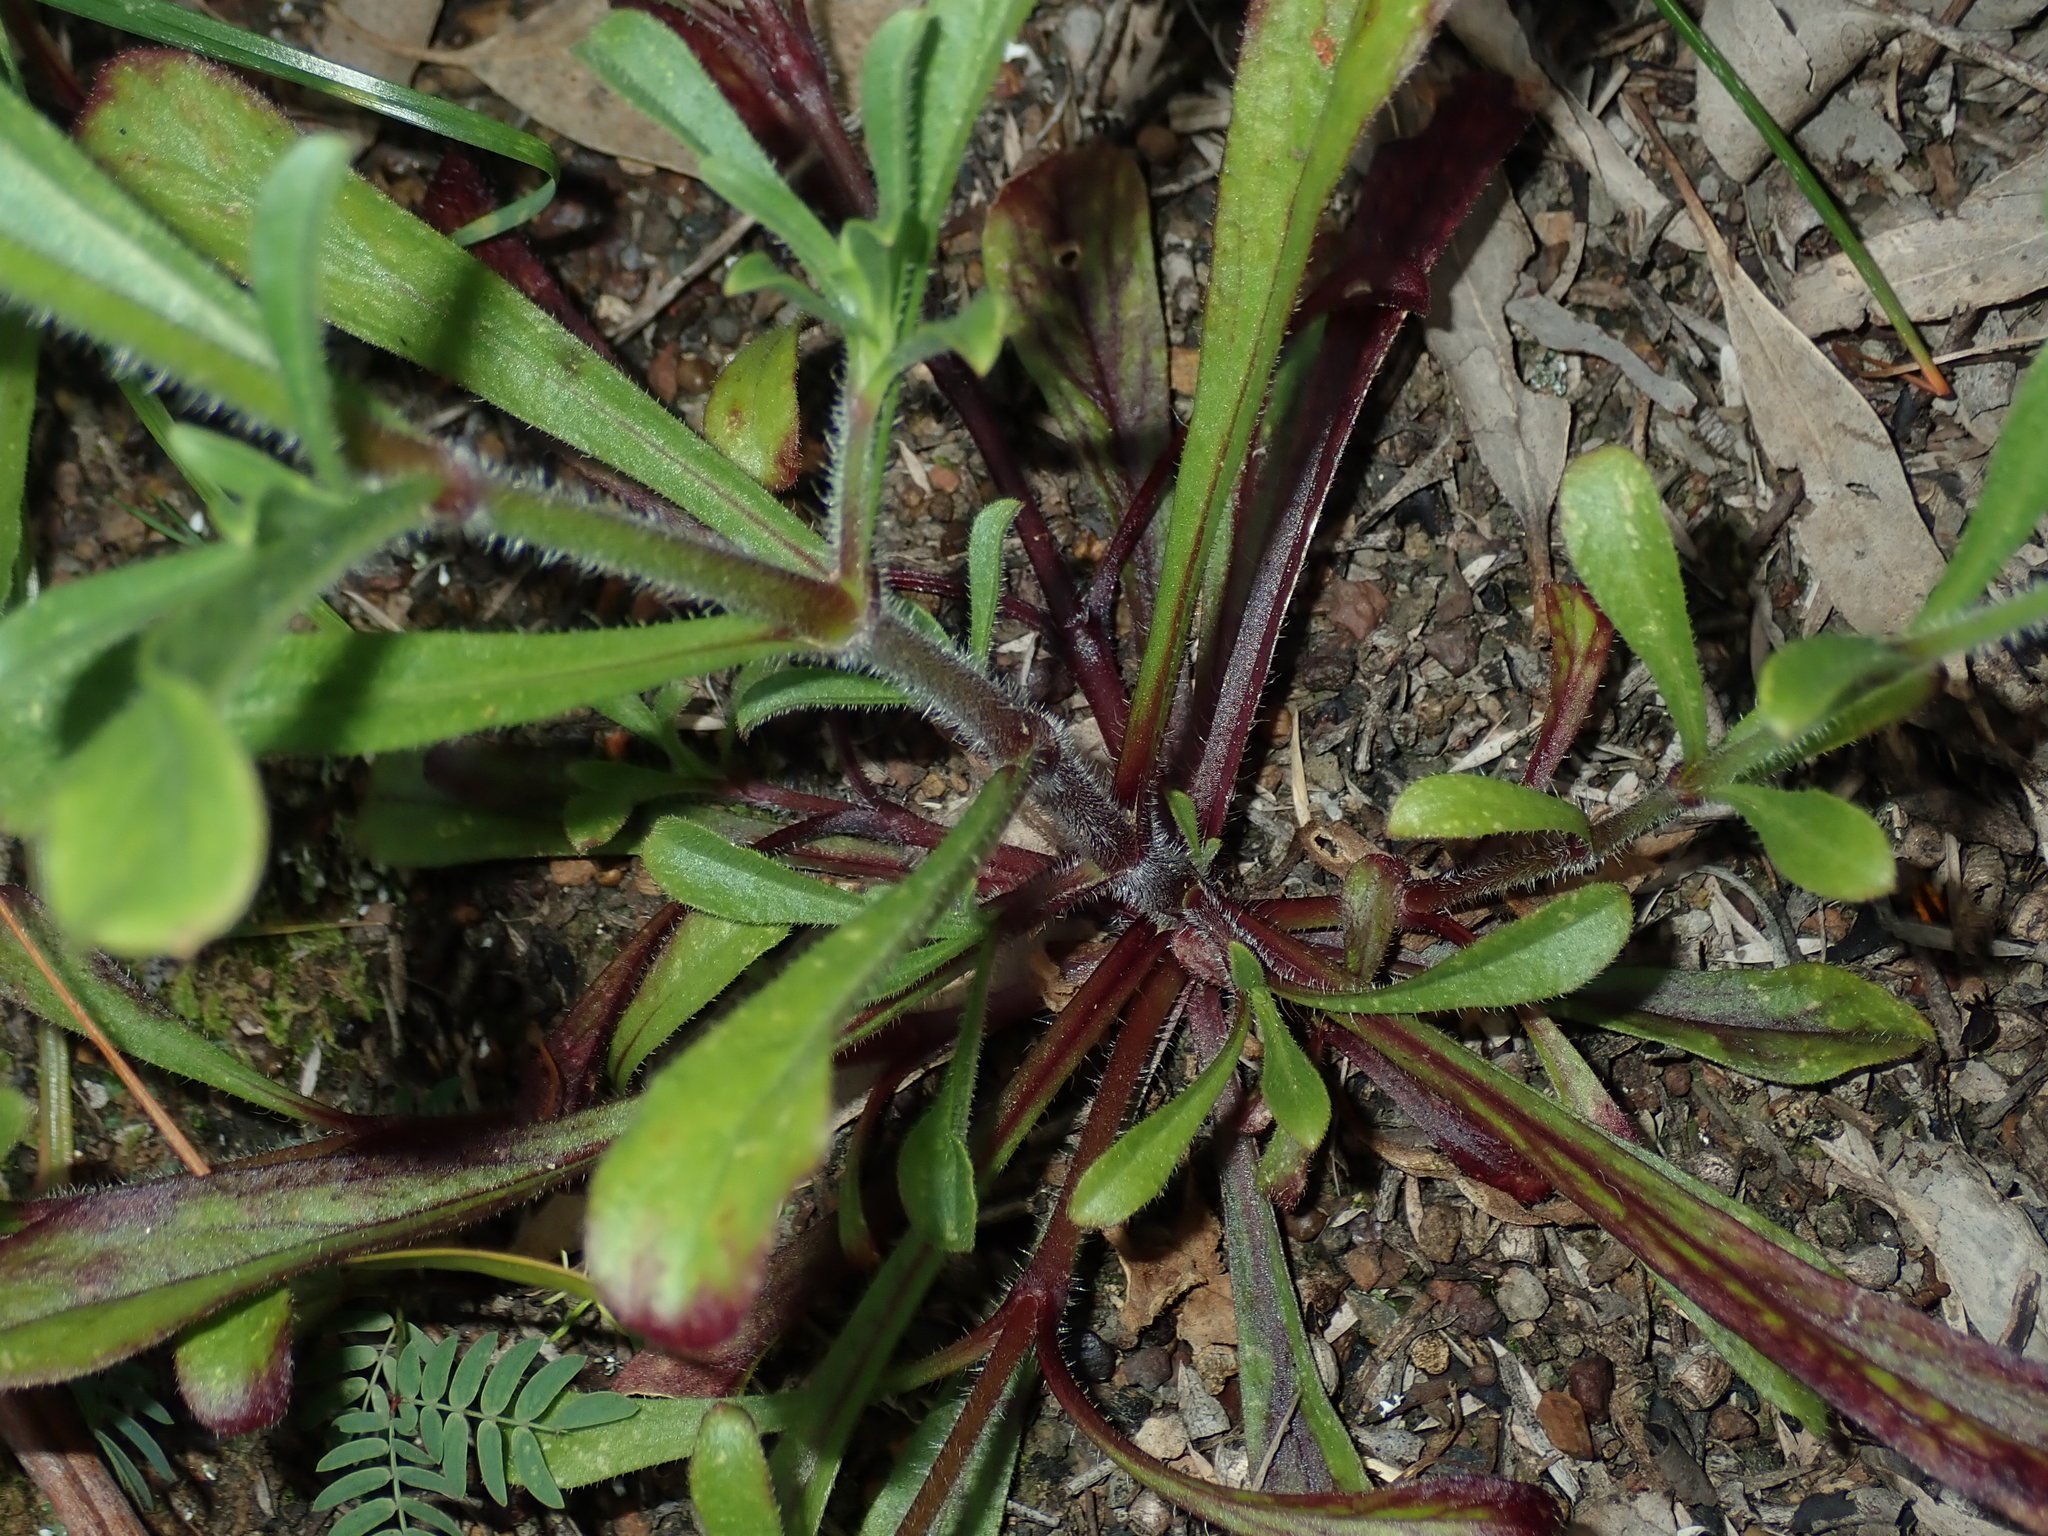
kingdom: Plantae
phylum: Tracheophyta
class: Magnoliopsida
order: Caryophyllales
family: Caryophyllaceae
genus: Silene
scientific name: Silene gallica
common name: Small-flowered catchfly
